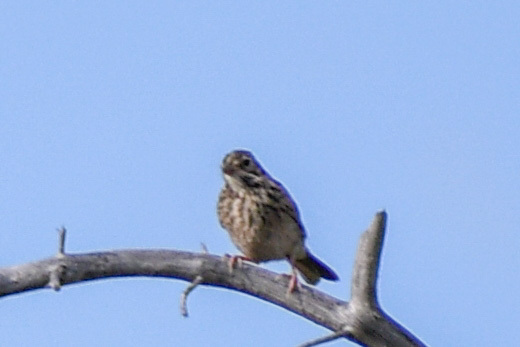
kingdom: Animalia
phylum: Chordata
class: Aves
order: Passeriformes
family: Passerellidae
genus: Pooecetes
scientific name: Pooecetes gramineus
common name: Vesper sparrow
